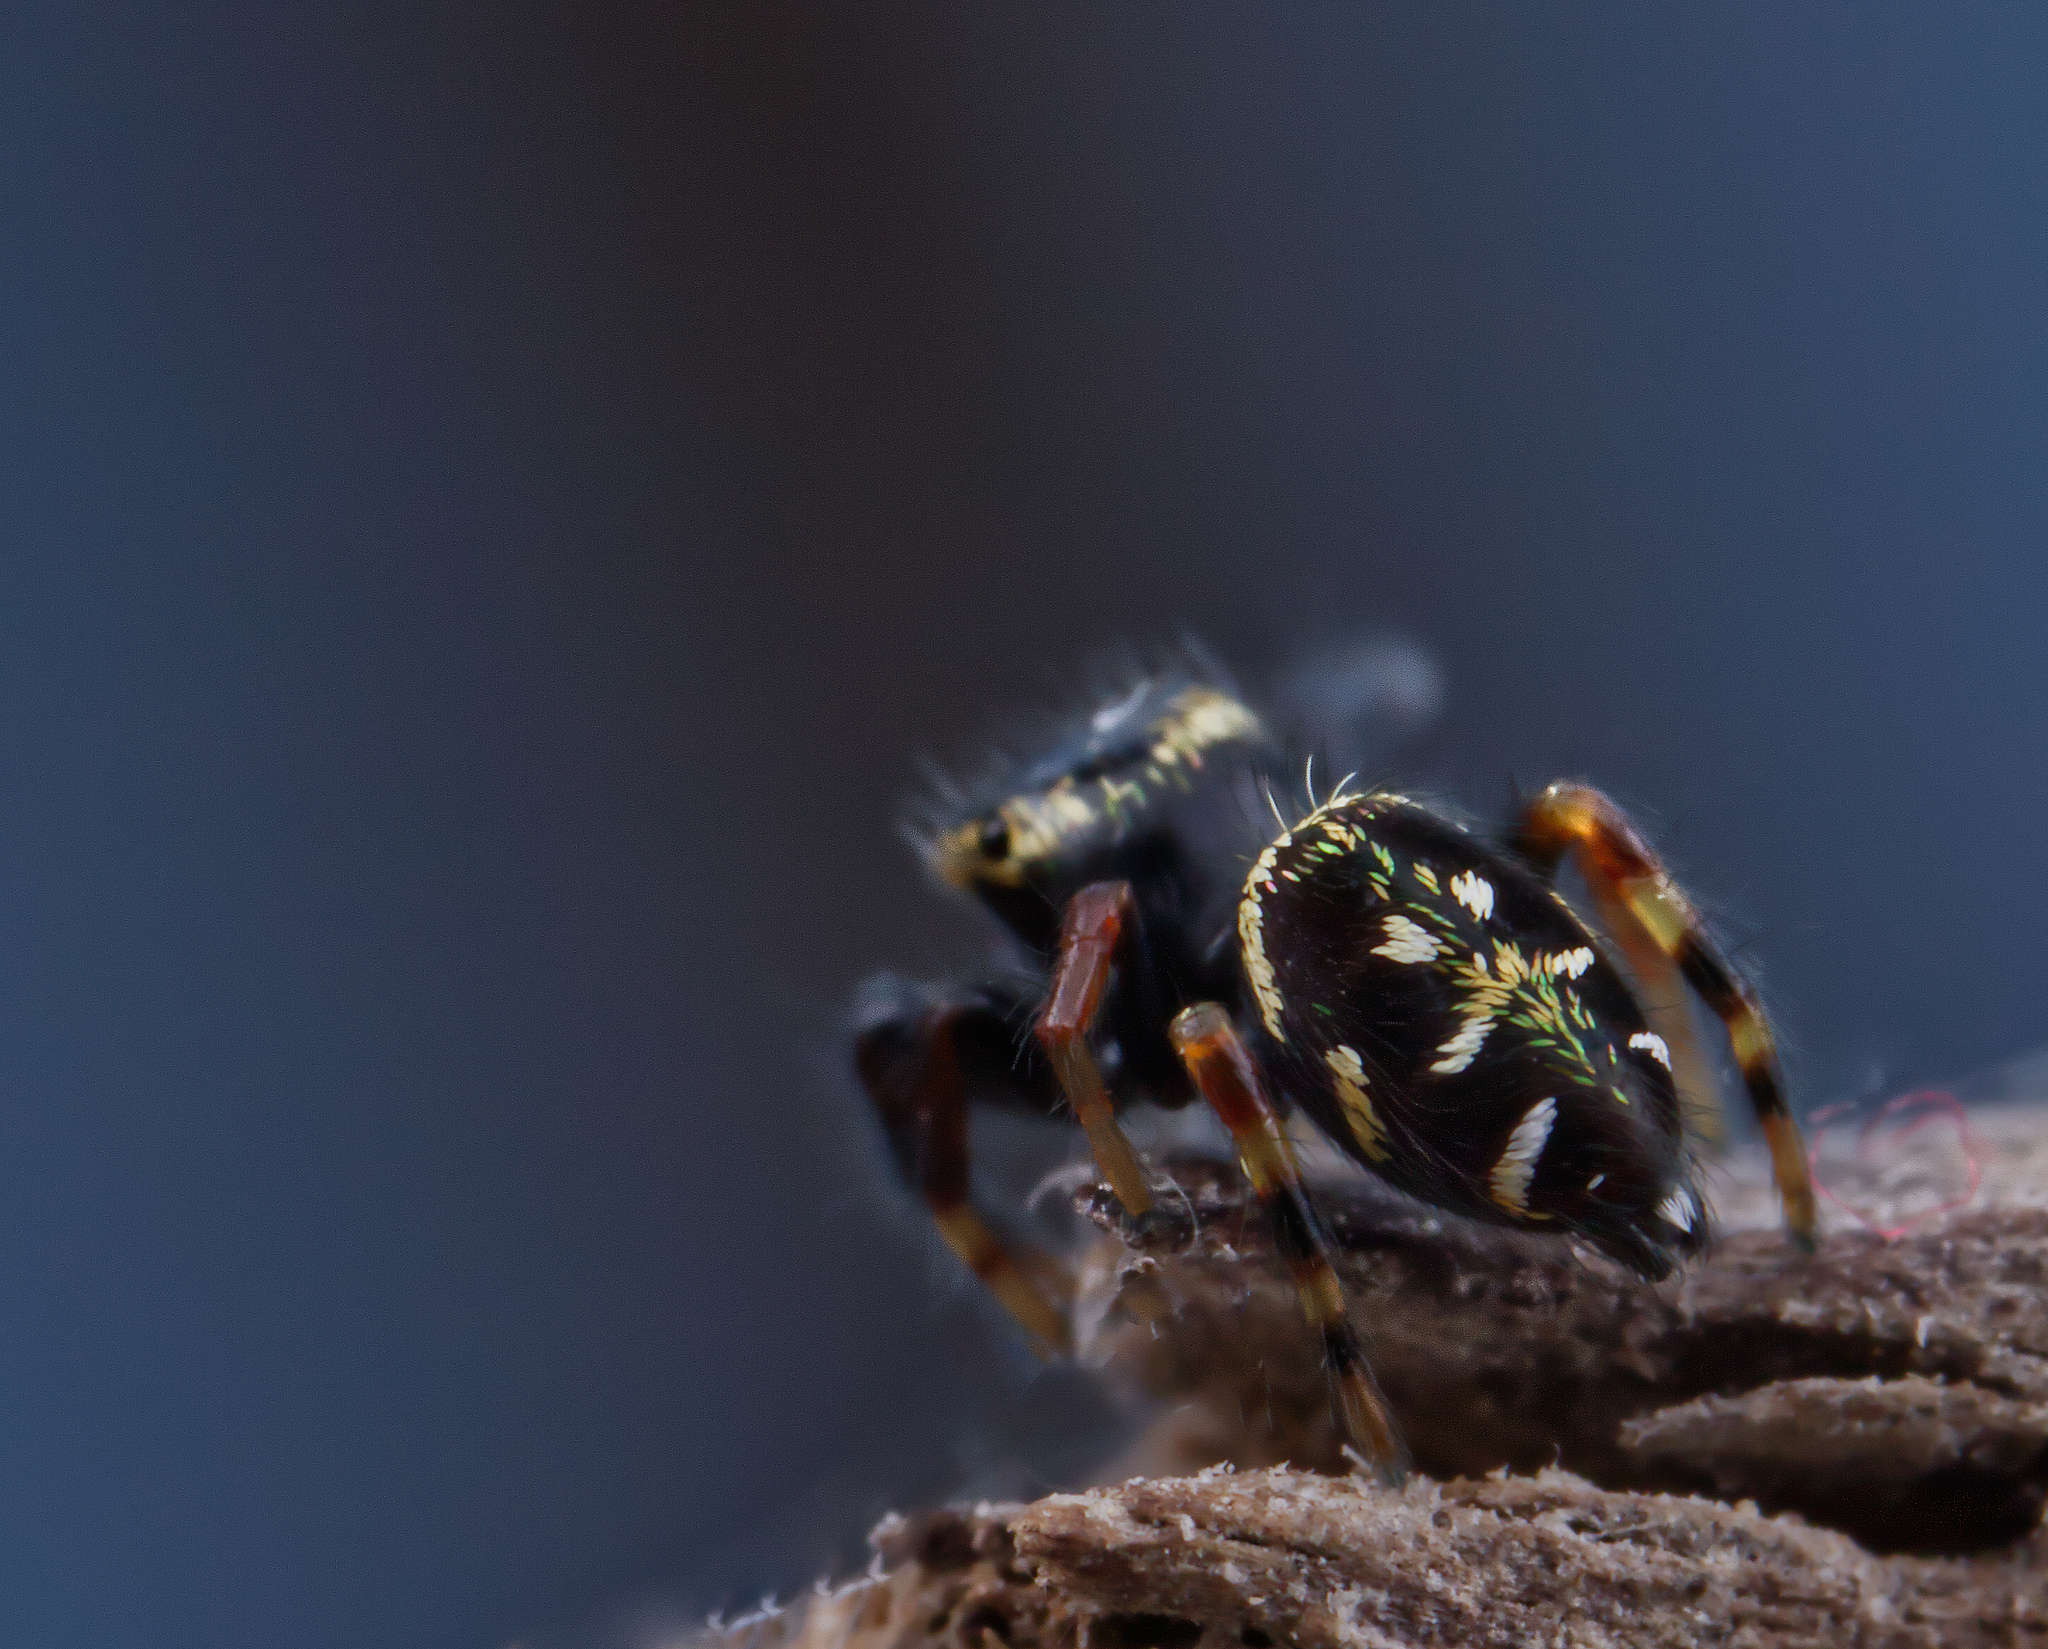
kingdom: Animalia
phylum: Arthropoda
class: Arachnida
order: Araneae
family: Salticidae
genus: Paraphidippus
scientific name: Paraphidippus aurantius
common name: Jumping spiders
